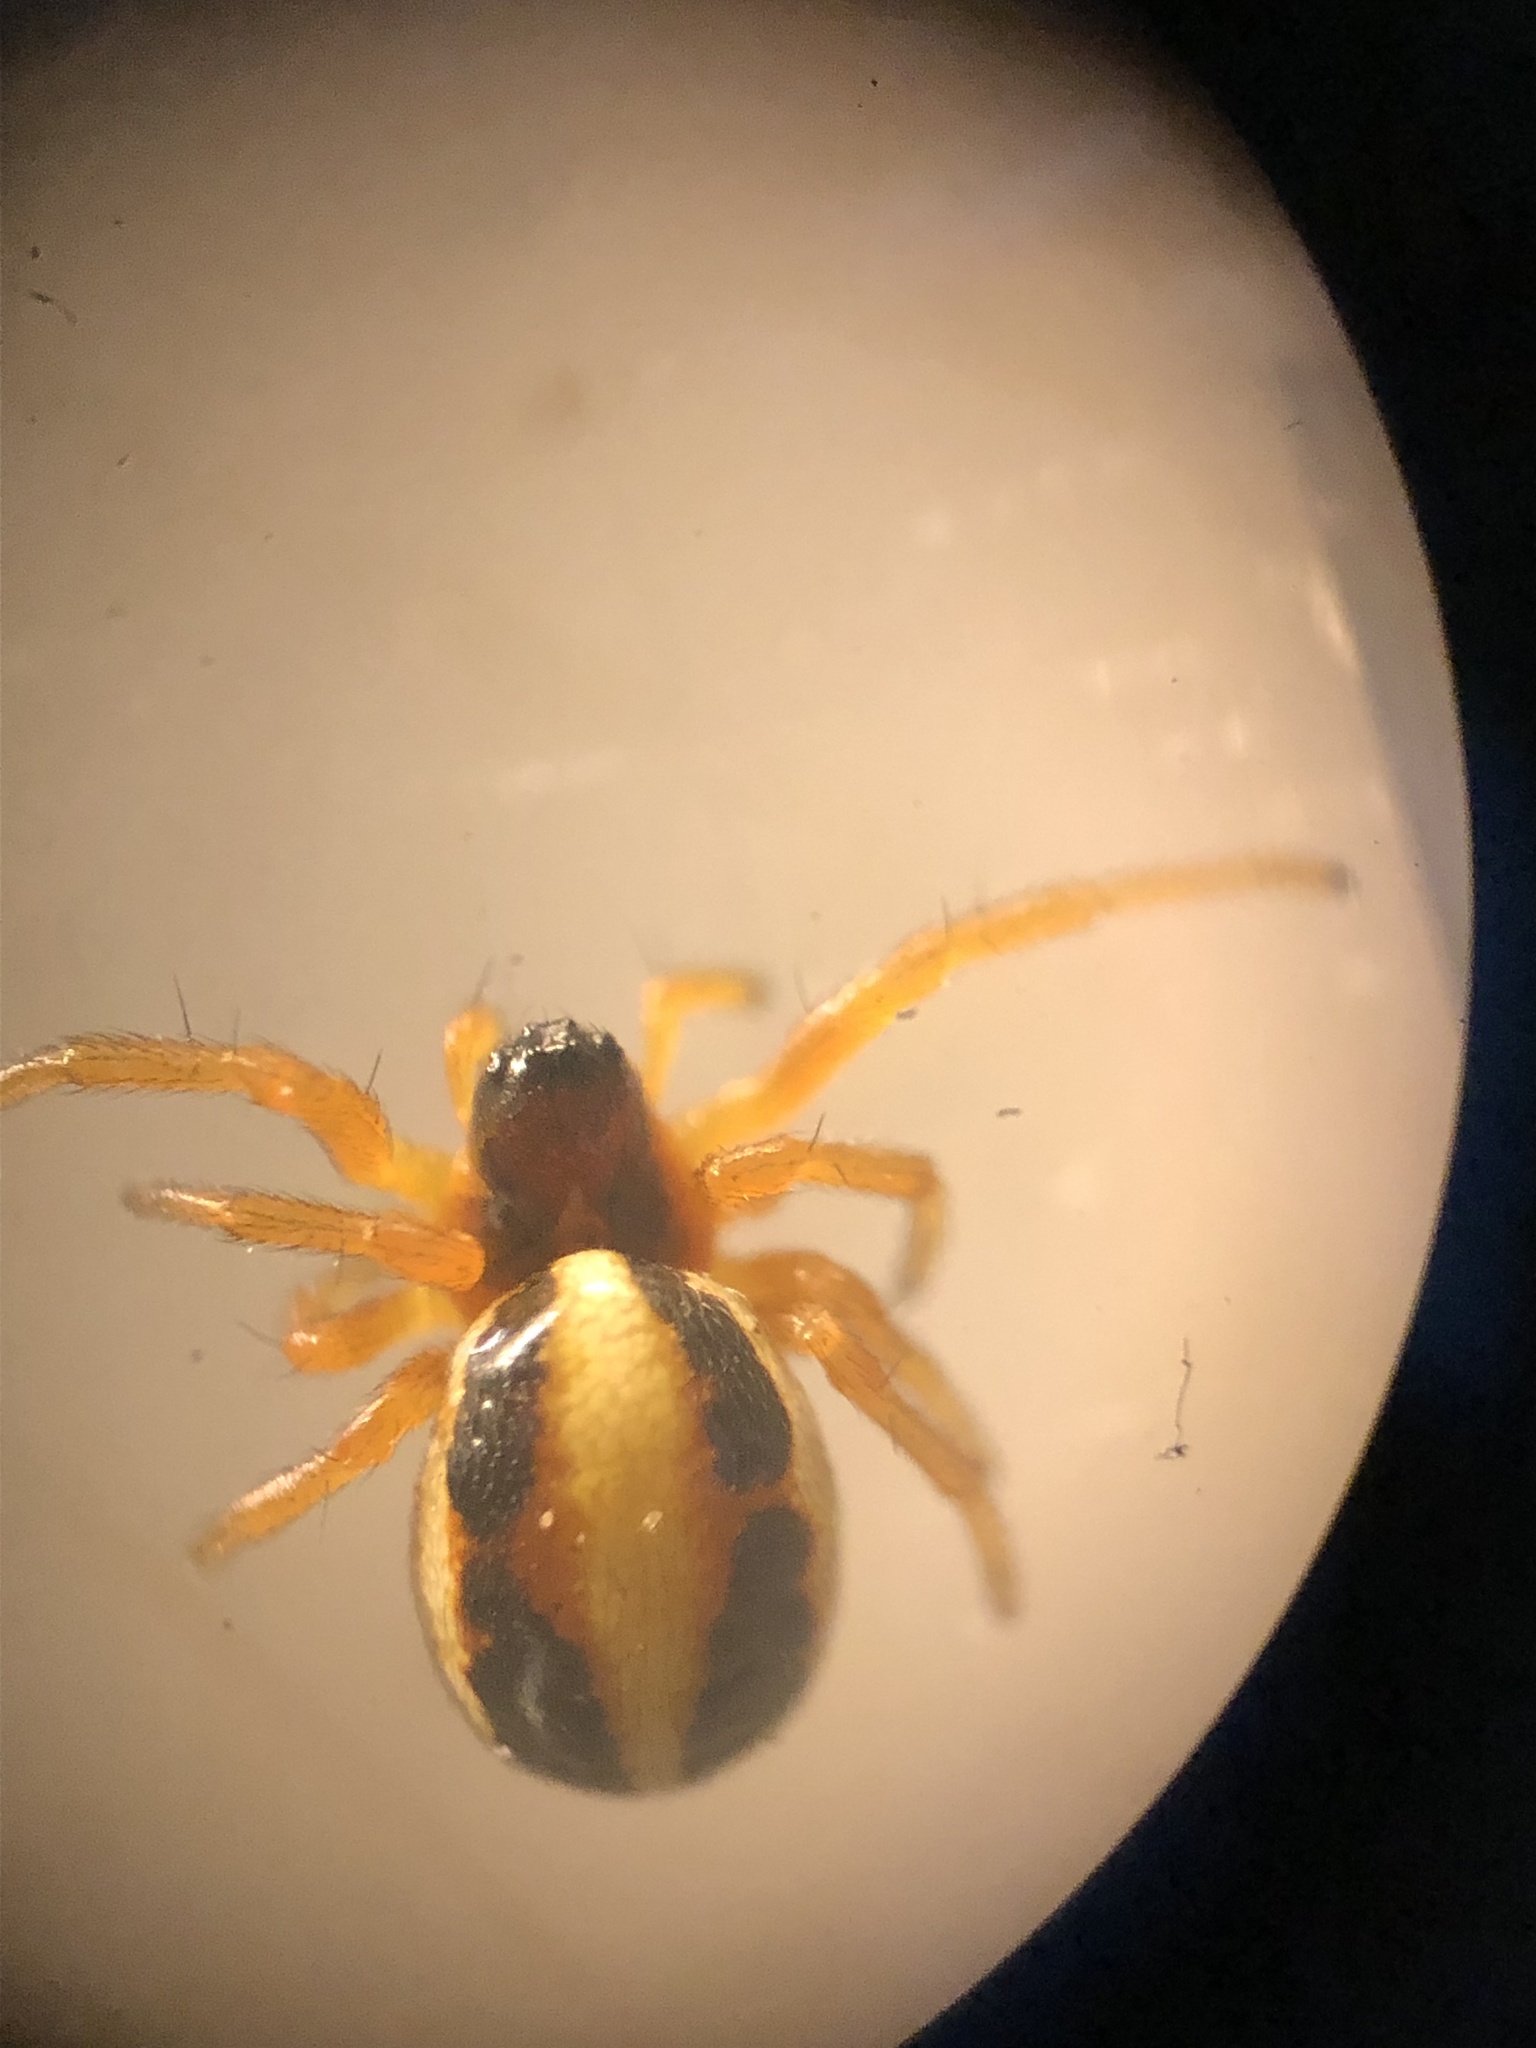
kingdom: Animalia
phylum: Arthropoda
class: Arachnida
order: Araneae
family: Araneidae
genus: Hypsosinga
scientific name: Hypsosinga albovittata
